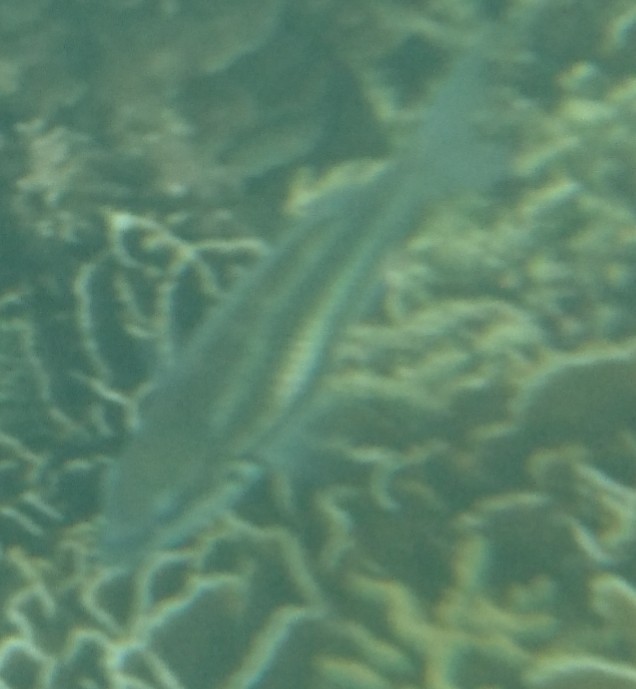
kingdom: Animalia
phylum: Chordata
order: Perciformes
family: Nemipteridae
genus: Pentapodus
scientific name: Pentapodus trivittatus
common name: Three-striped whiptail
